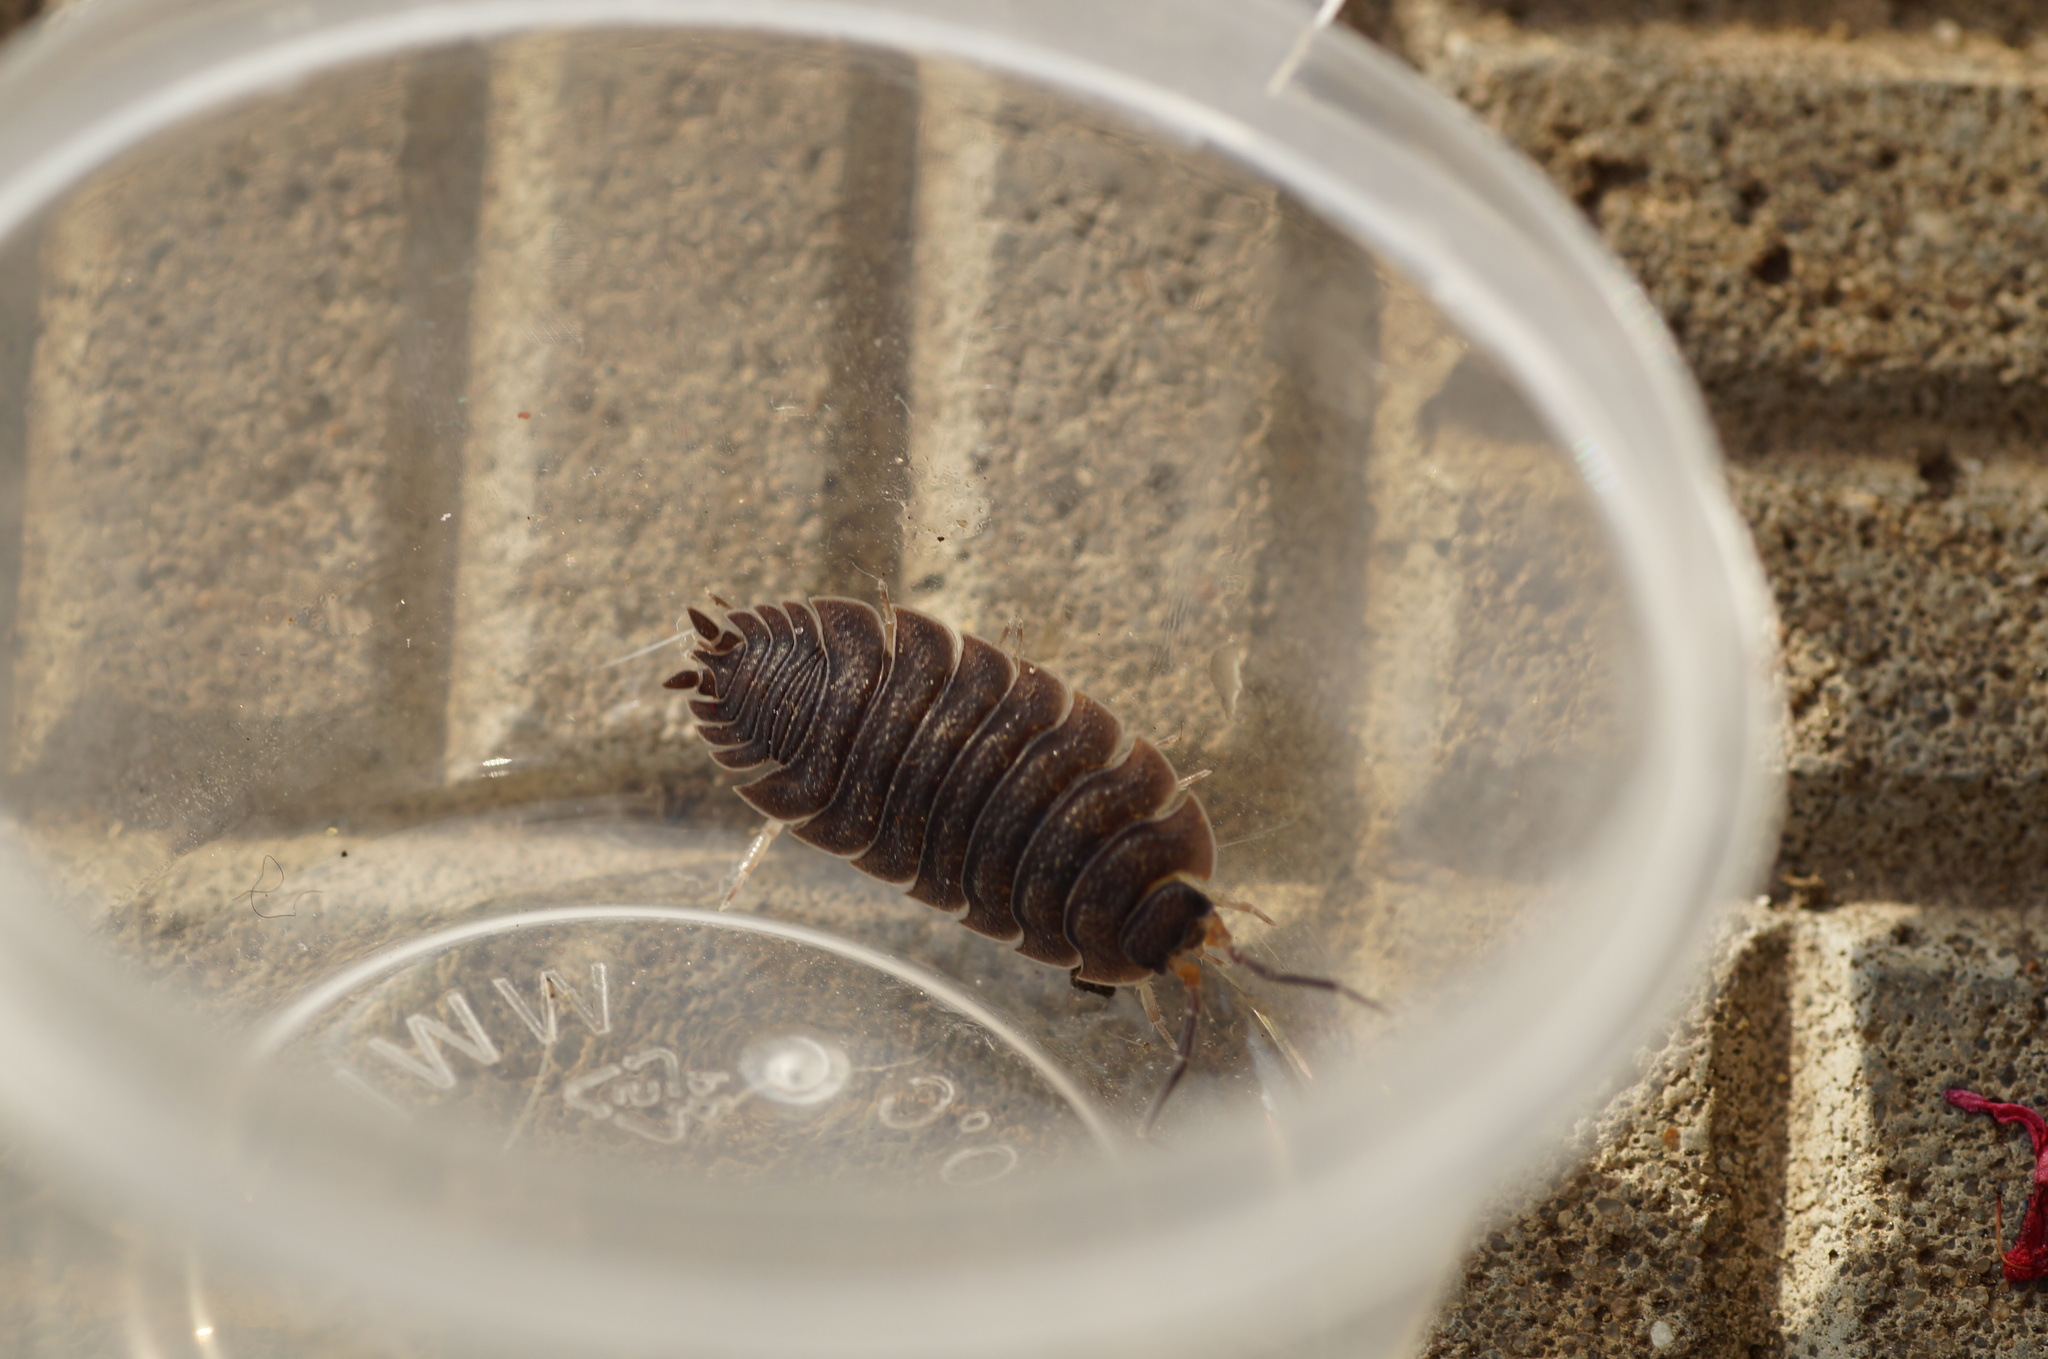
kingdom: Animalia
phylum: Arthropoda
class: Malacostraca
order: Isopoda
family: Porcellionidae
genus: Porcellio
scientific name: Porcellio scaber
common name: Common rough woodlouse
